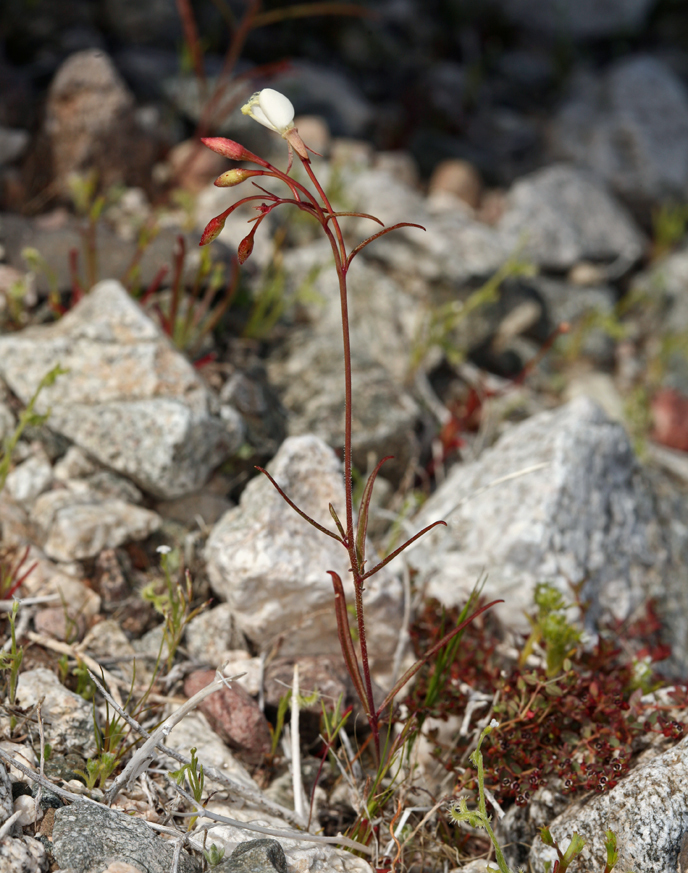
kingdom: Plantae
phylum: Tracheophyta
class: Magnoliopsida
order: Myrtales
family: Onagraceae
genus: Eremothera
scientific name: Eremothera refracta
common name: Narrowleaf suncup
